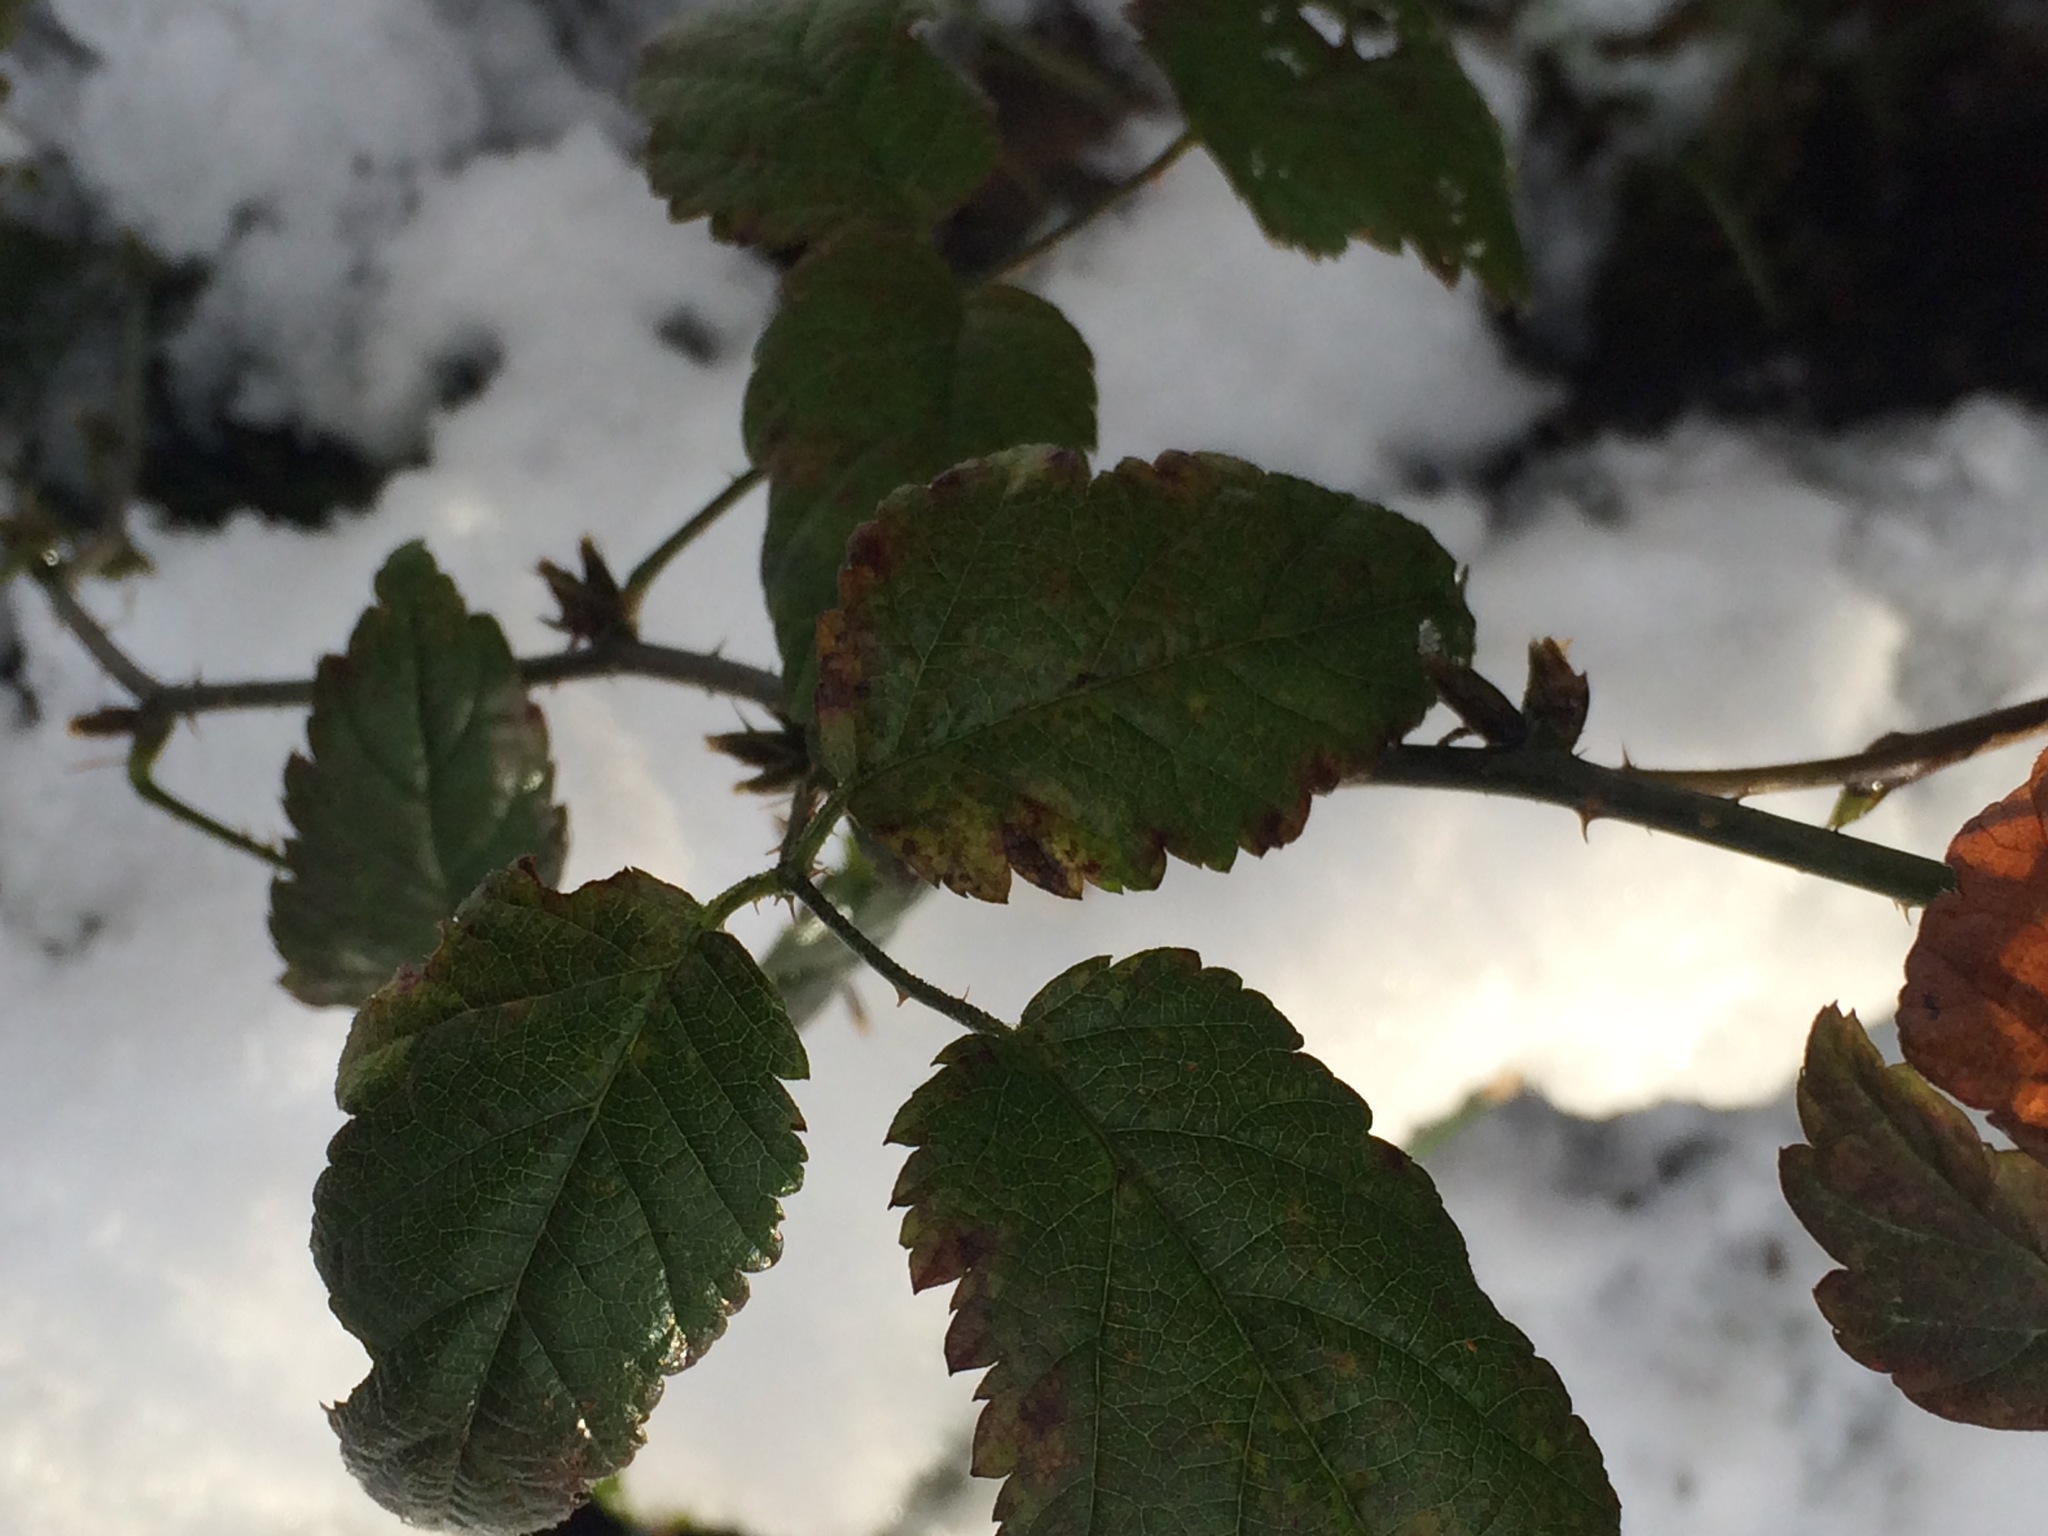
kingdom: Plantae
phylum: Tracheophyta
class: Magnoliopsida
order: Rosales
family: Rosaceae
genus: Rubus
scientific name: Rubus ursinus
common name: Pacific blackberry
